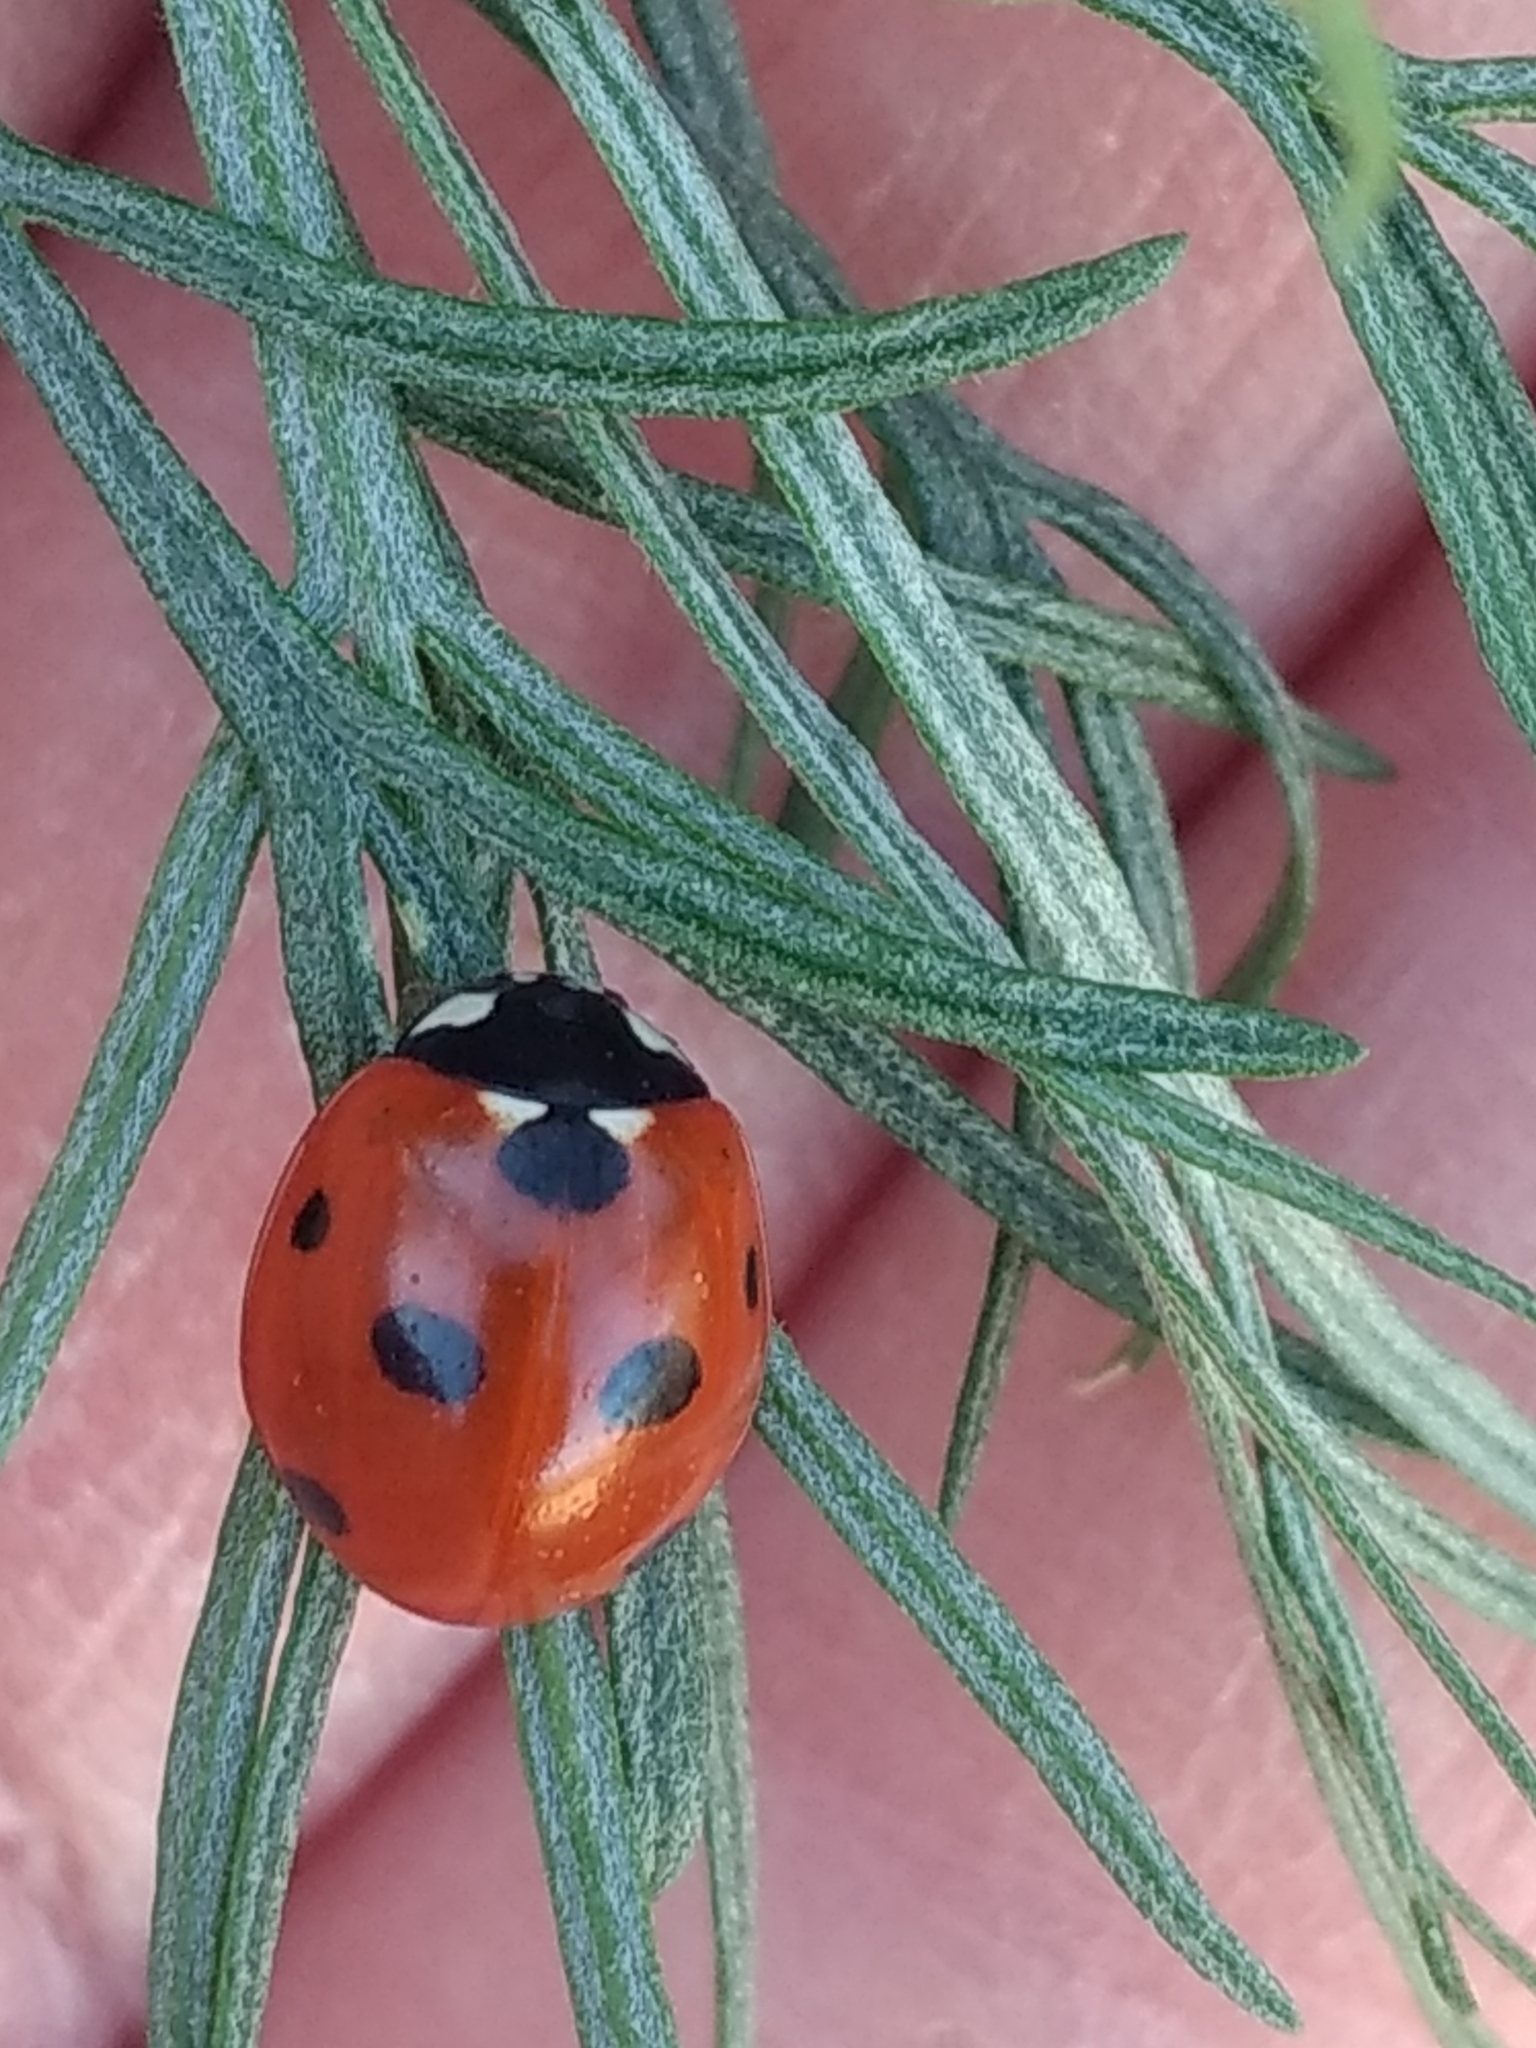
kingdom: Animalia
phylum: Arthropoda
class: Insecta
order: Coleoptera
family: Coccinellidae
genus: Coccinella
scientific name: Coccinella septempunctata
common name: Sevenspotted lady beetle
